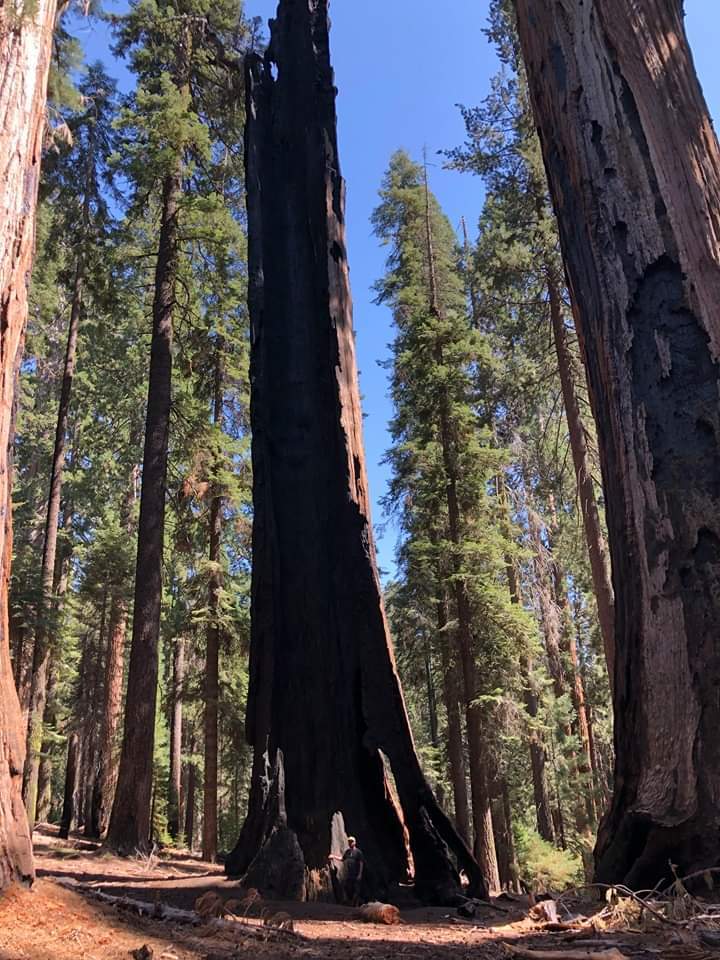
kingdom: Plantae
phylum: Tracheophyta
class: Pinopsida
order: Pinales
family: Cupressaceae
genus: Sequoiadendron
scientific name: Sequoiadendron giganteum
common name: Wellingtonia
